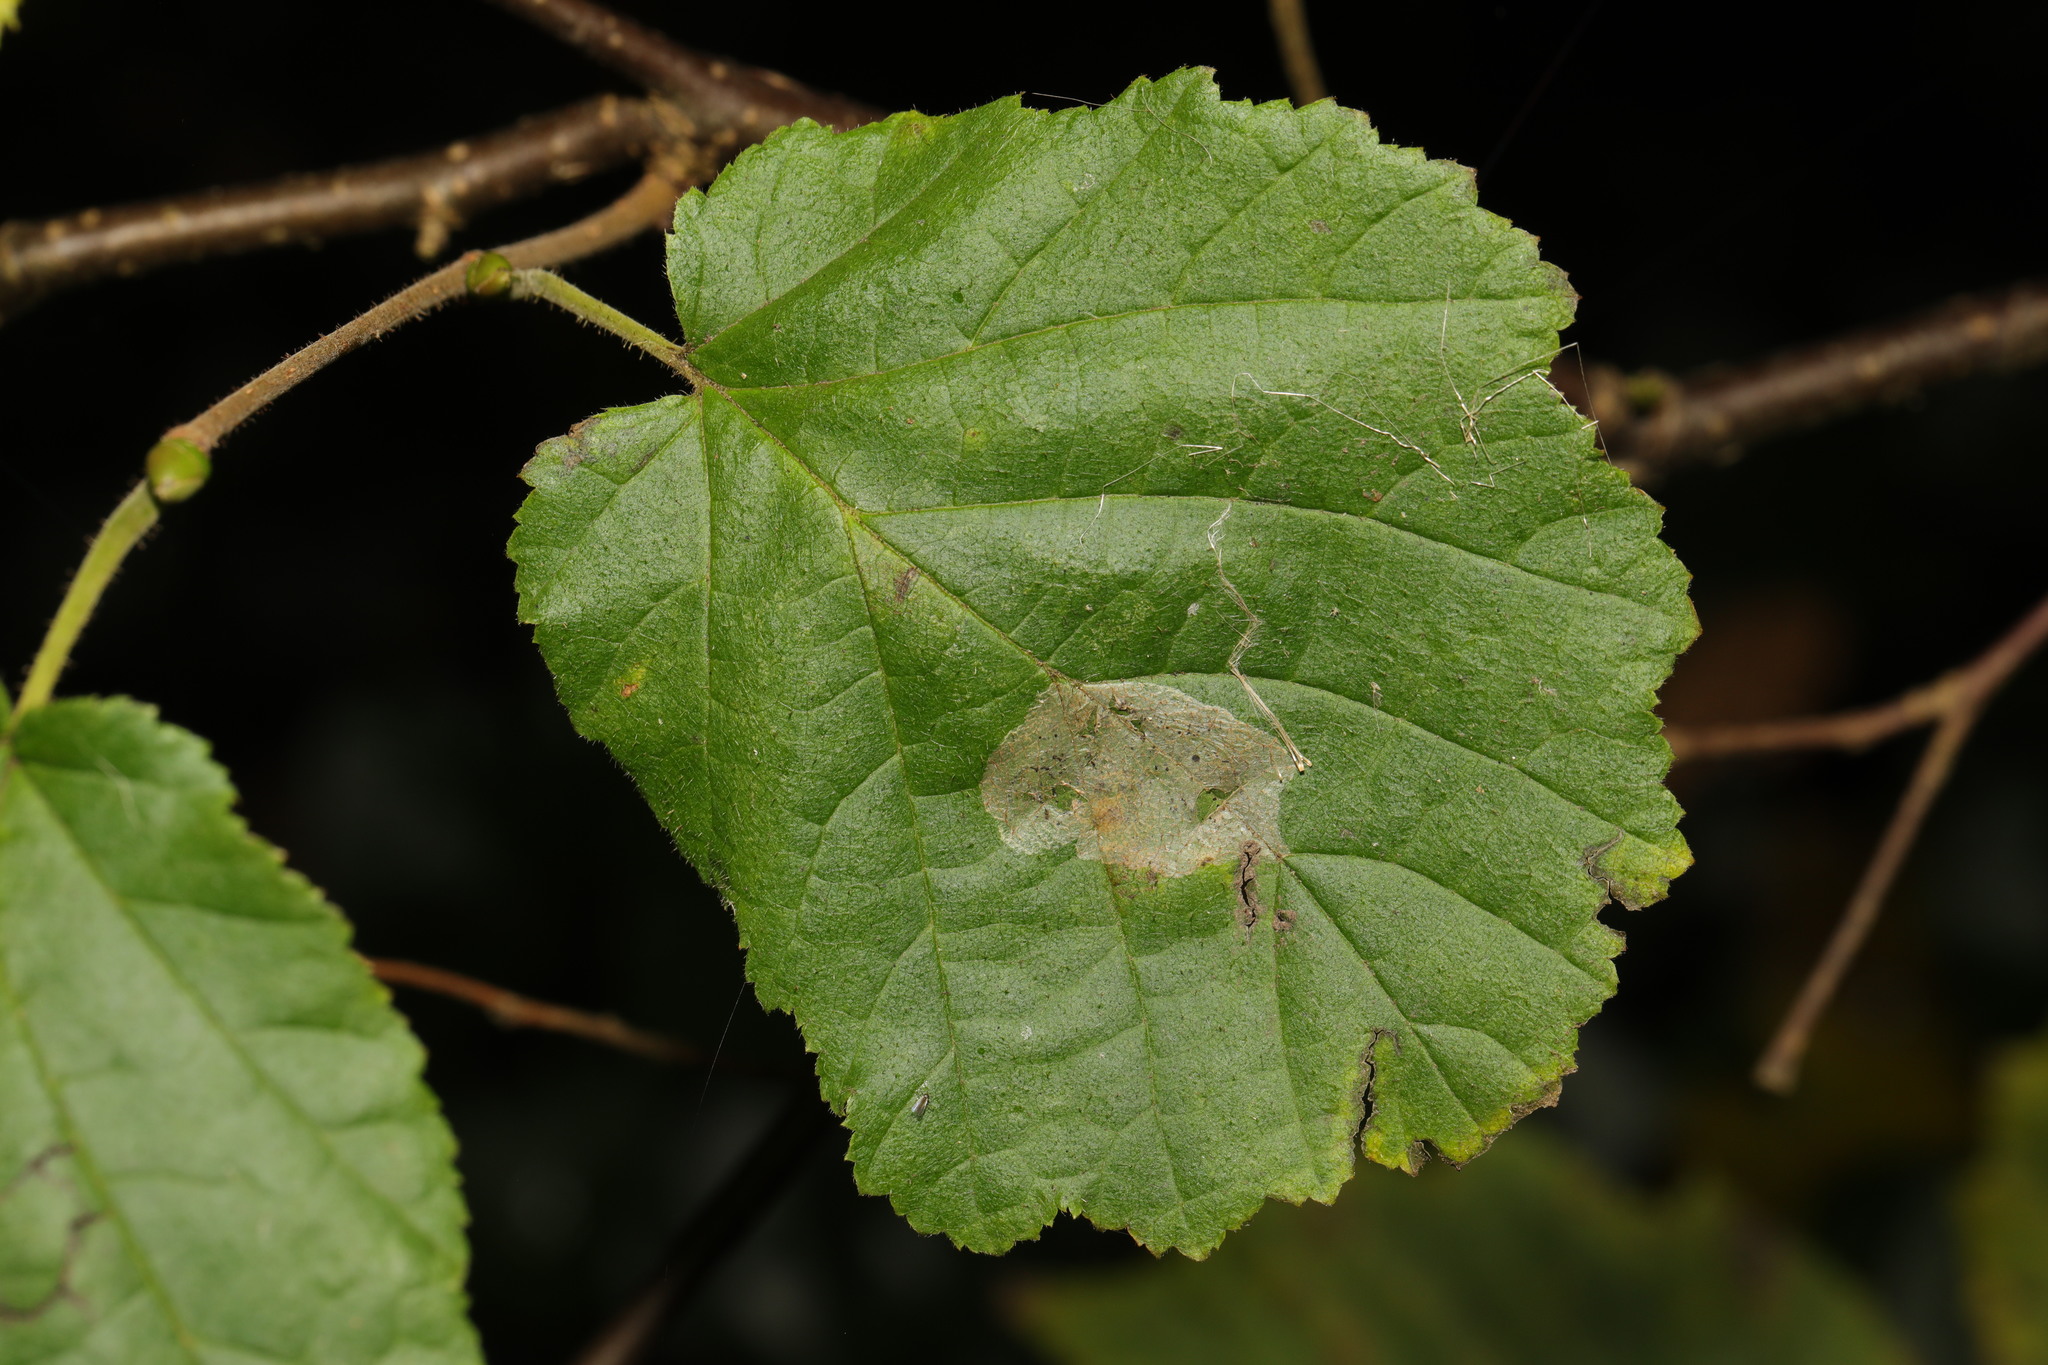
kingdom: Animalia
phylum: Arthropoda
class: Insecta
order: Lepidoptera
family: Gracillariidae
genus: Phyllonorycter
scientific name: Phyllonorycter coryli
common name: Nut-leaf blister moth
